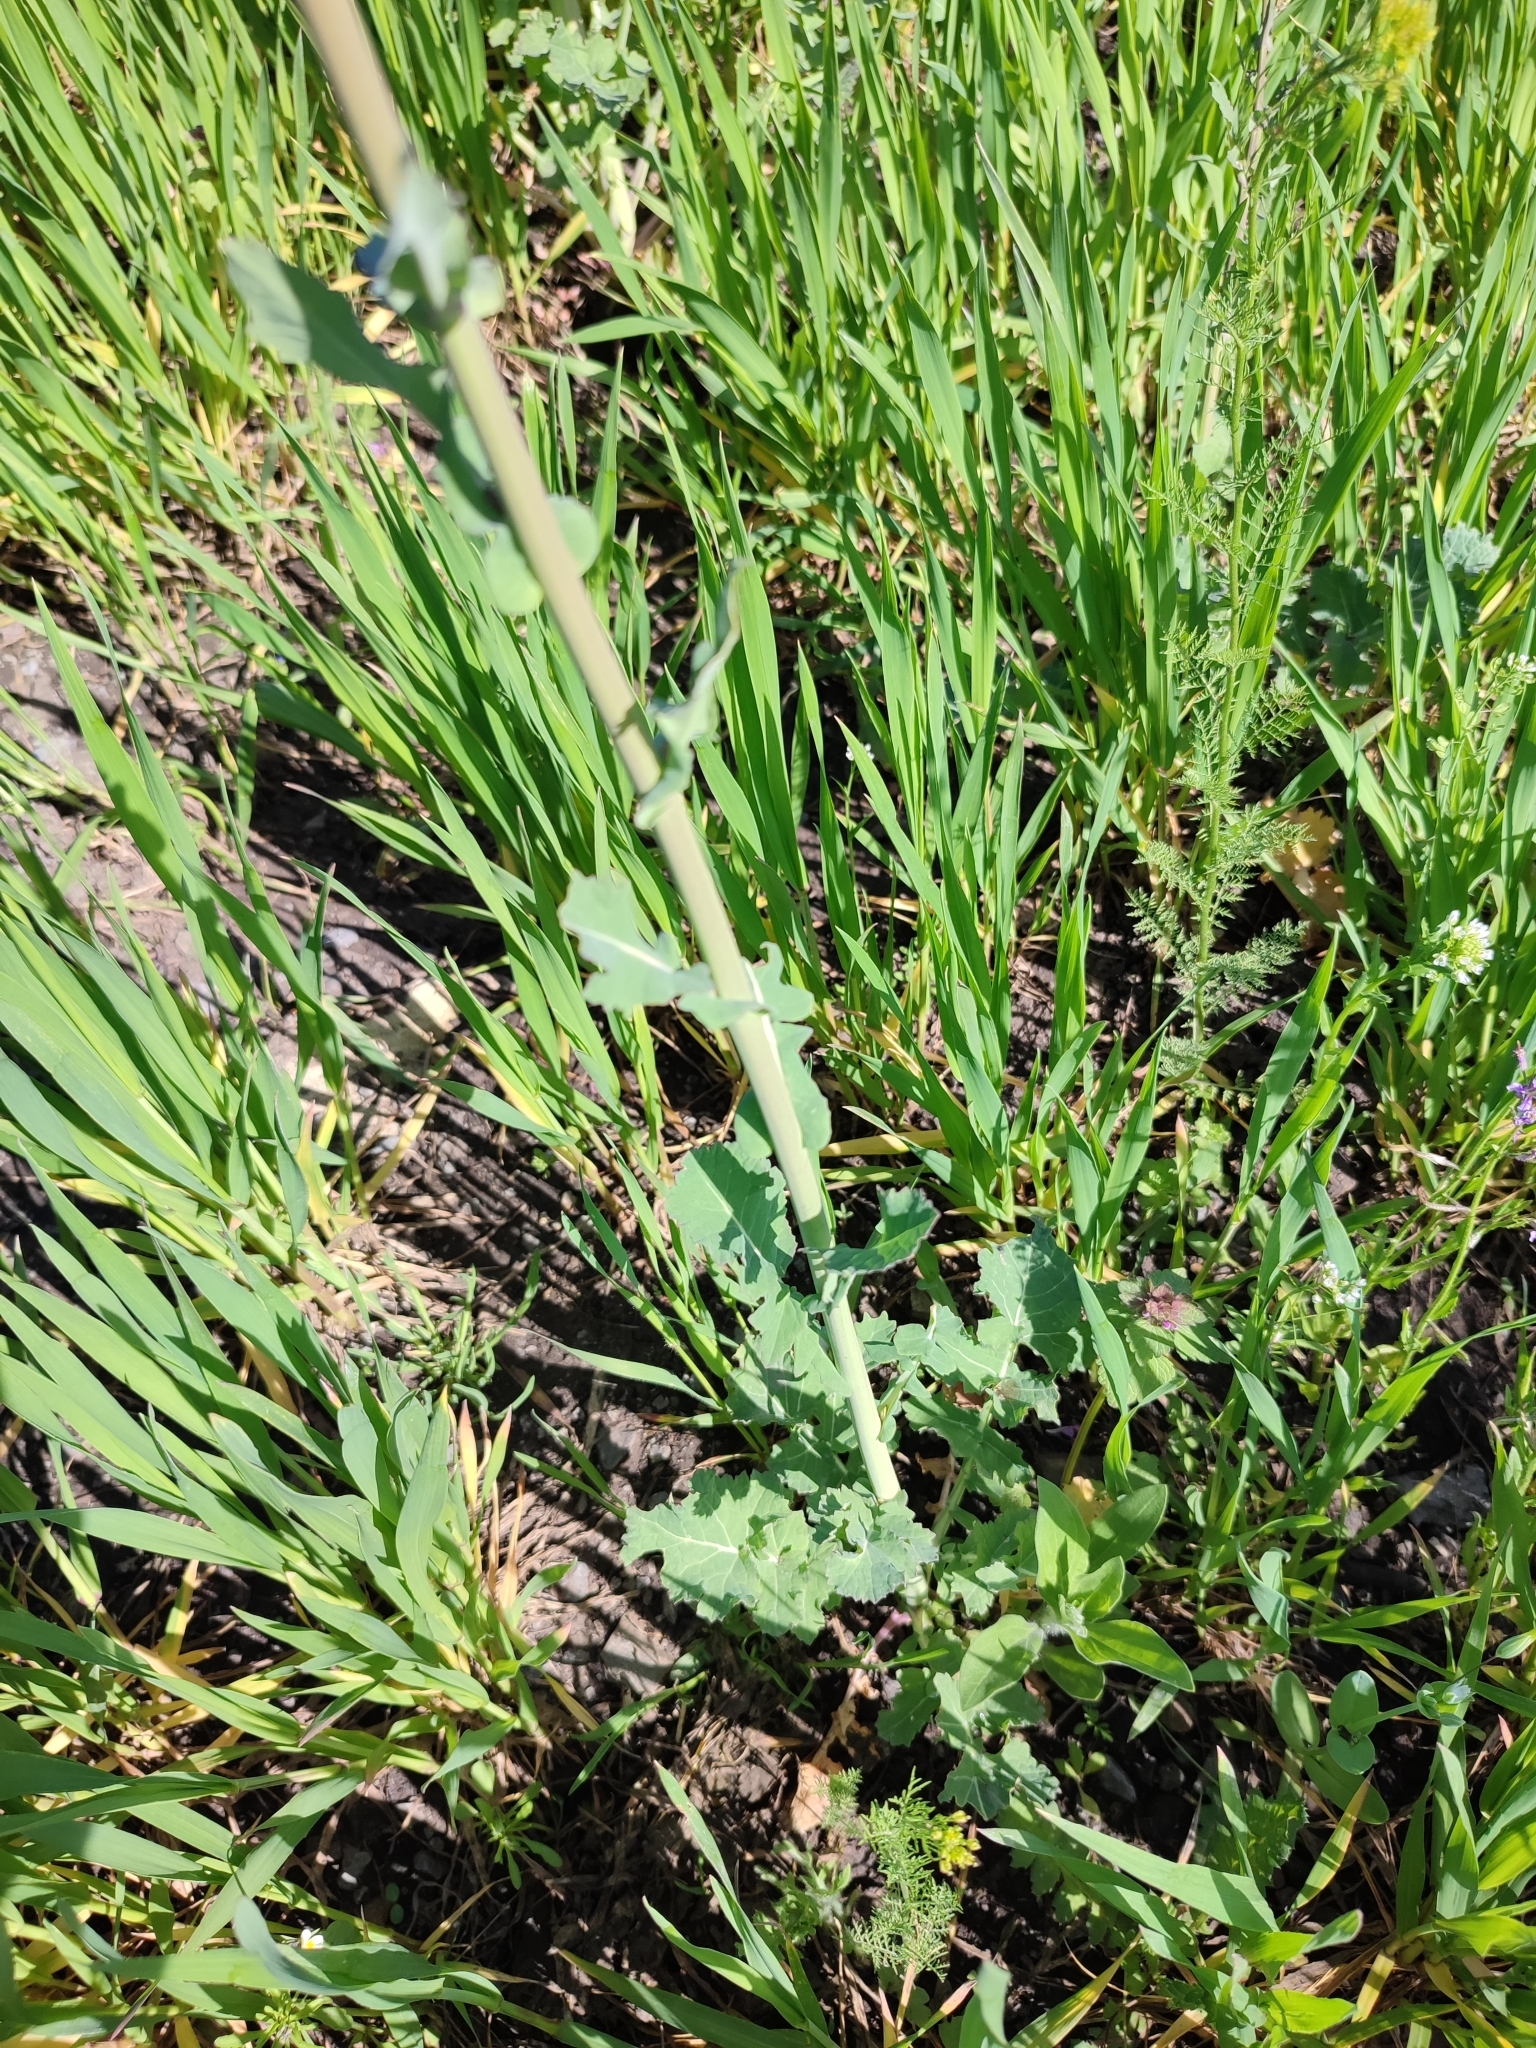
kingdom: Plantae
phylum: Tracheophyta
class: Magnoliopsida
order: Brassicales
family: Brassicaceae
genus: Brassica
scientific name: Brassica napus
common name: Rape
